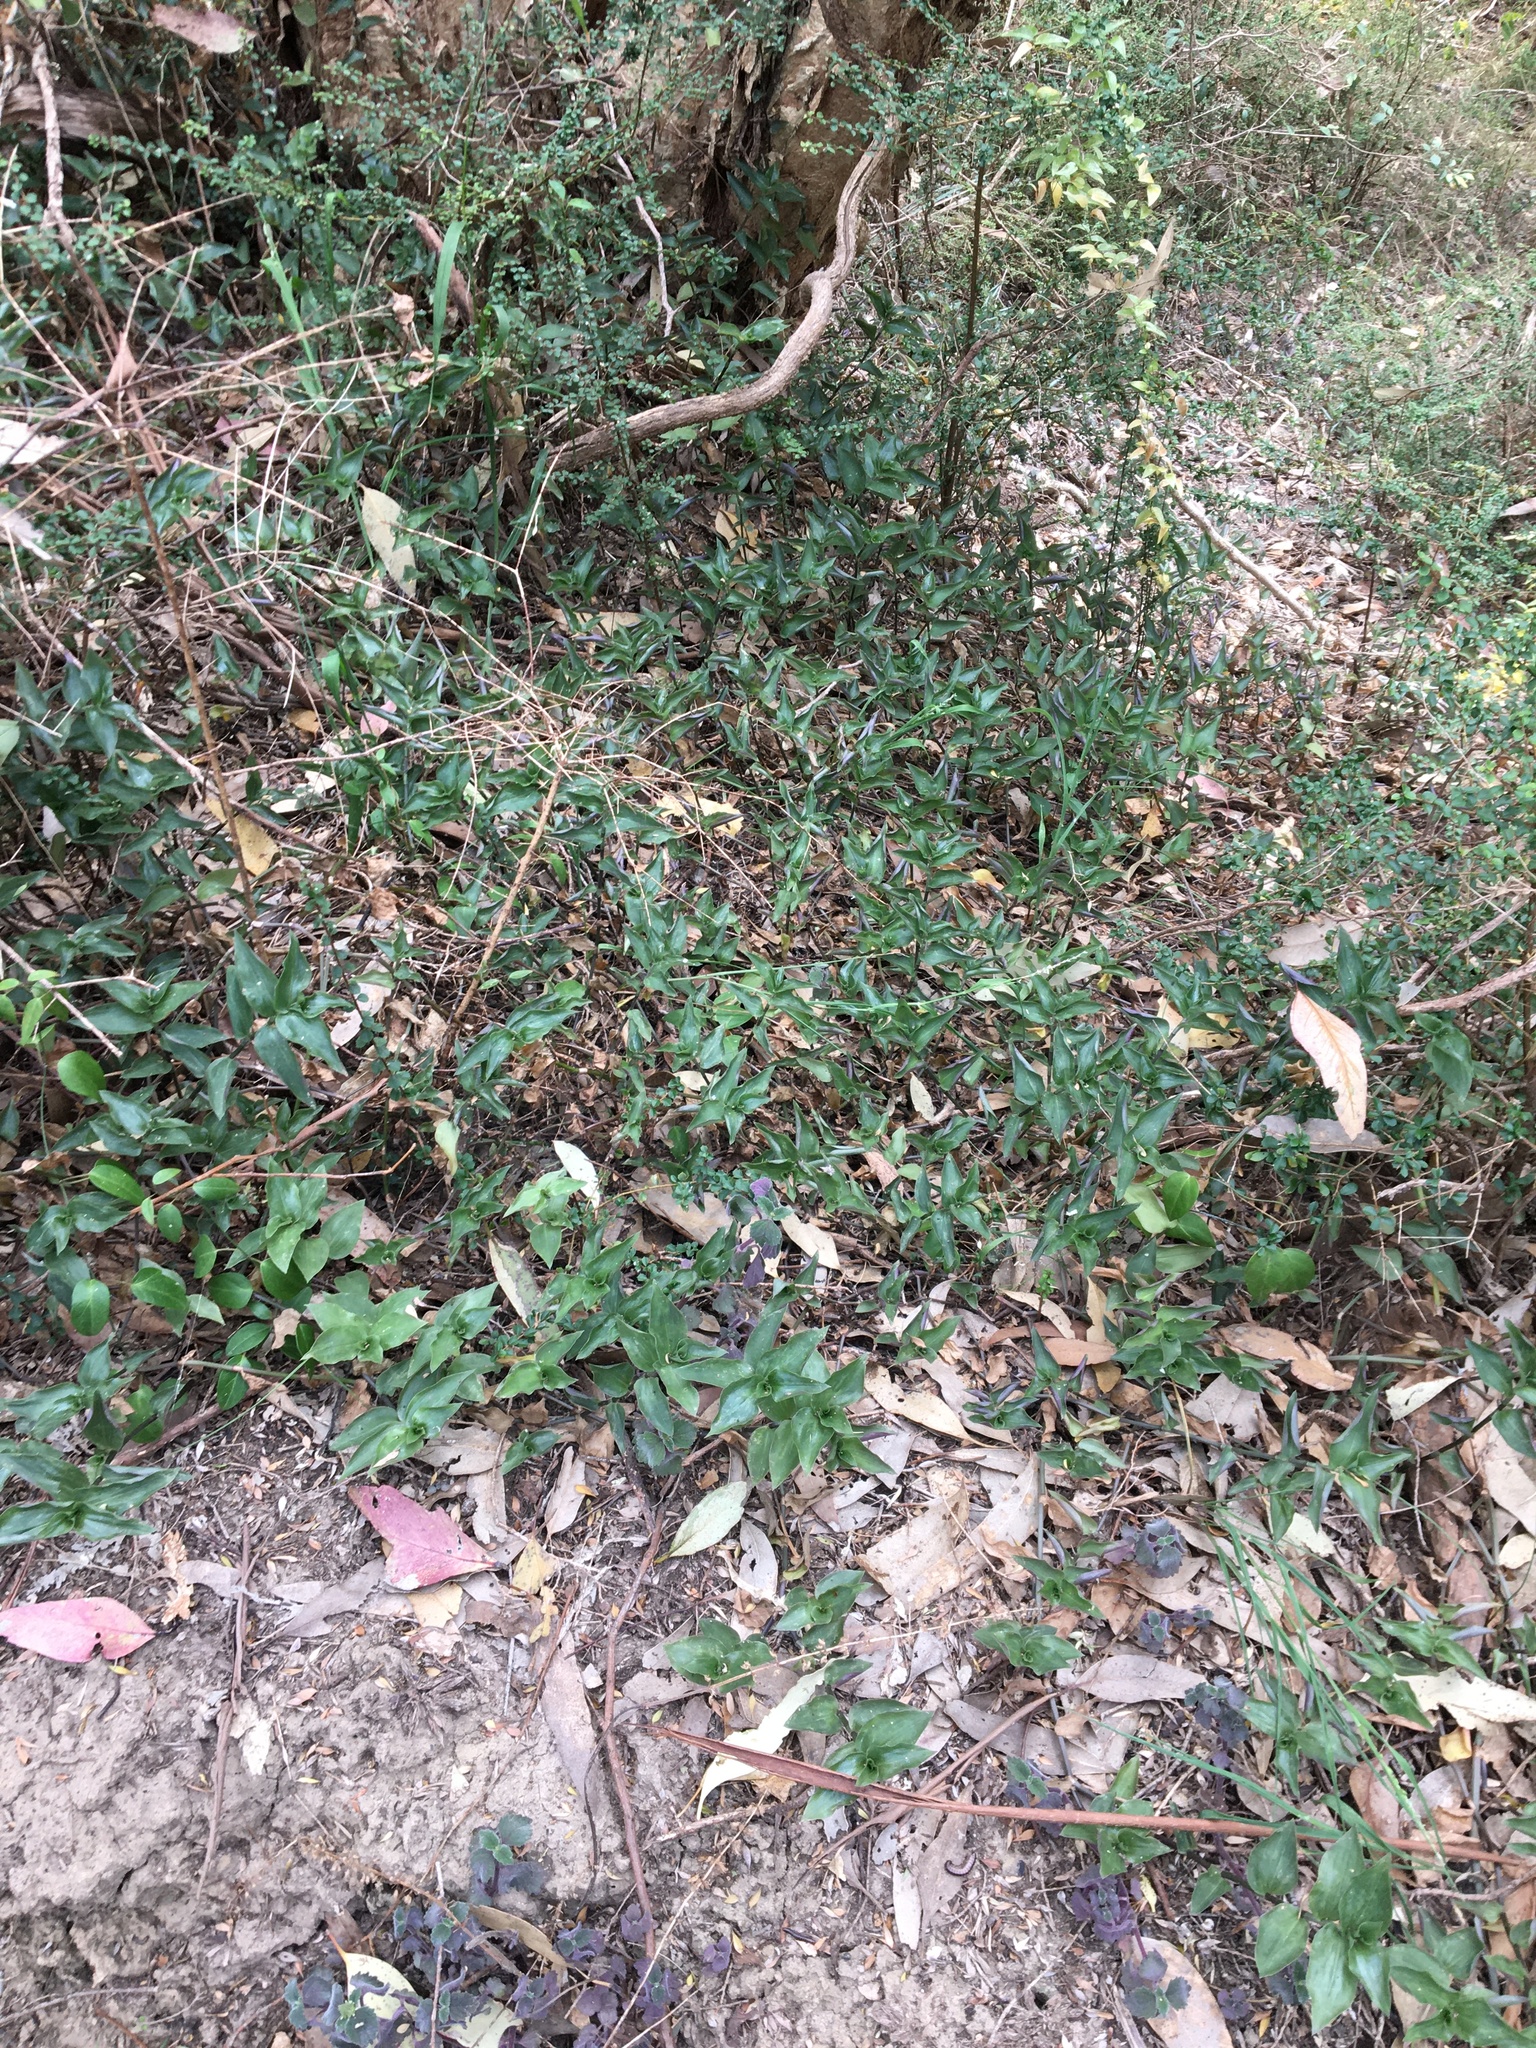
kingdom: Plantae
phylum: Tracheophyta
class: Liliopsida
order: Commelinales
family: Commelinaceae
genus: Tradescantia
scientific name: Tradescantia fluminensis
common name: Wandering-jew
